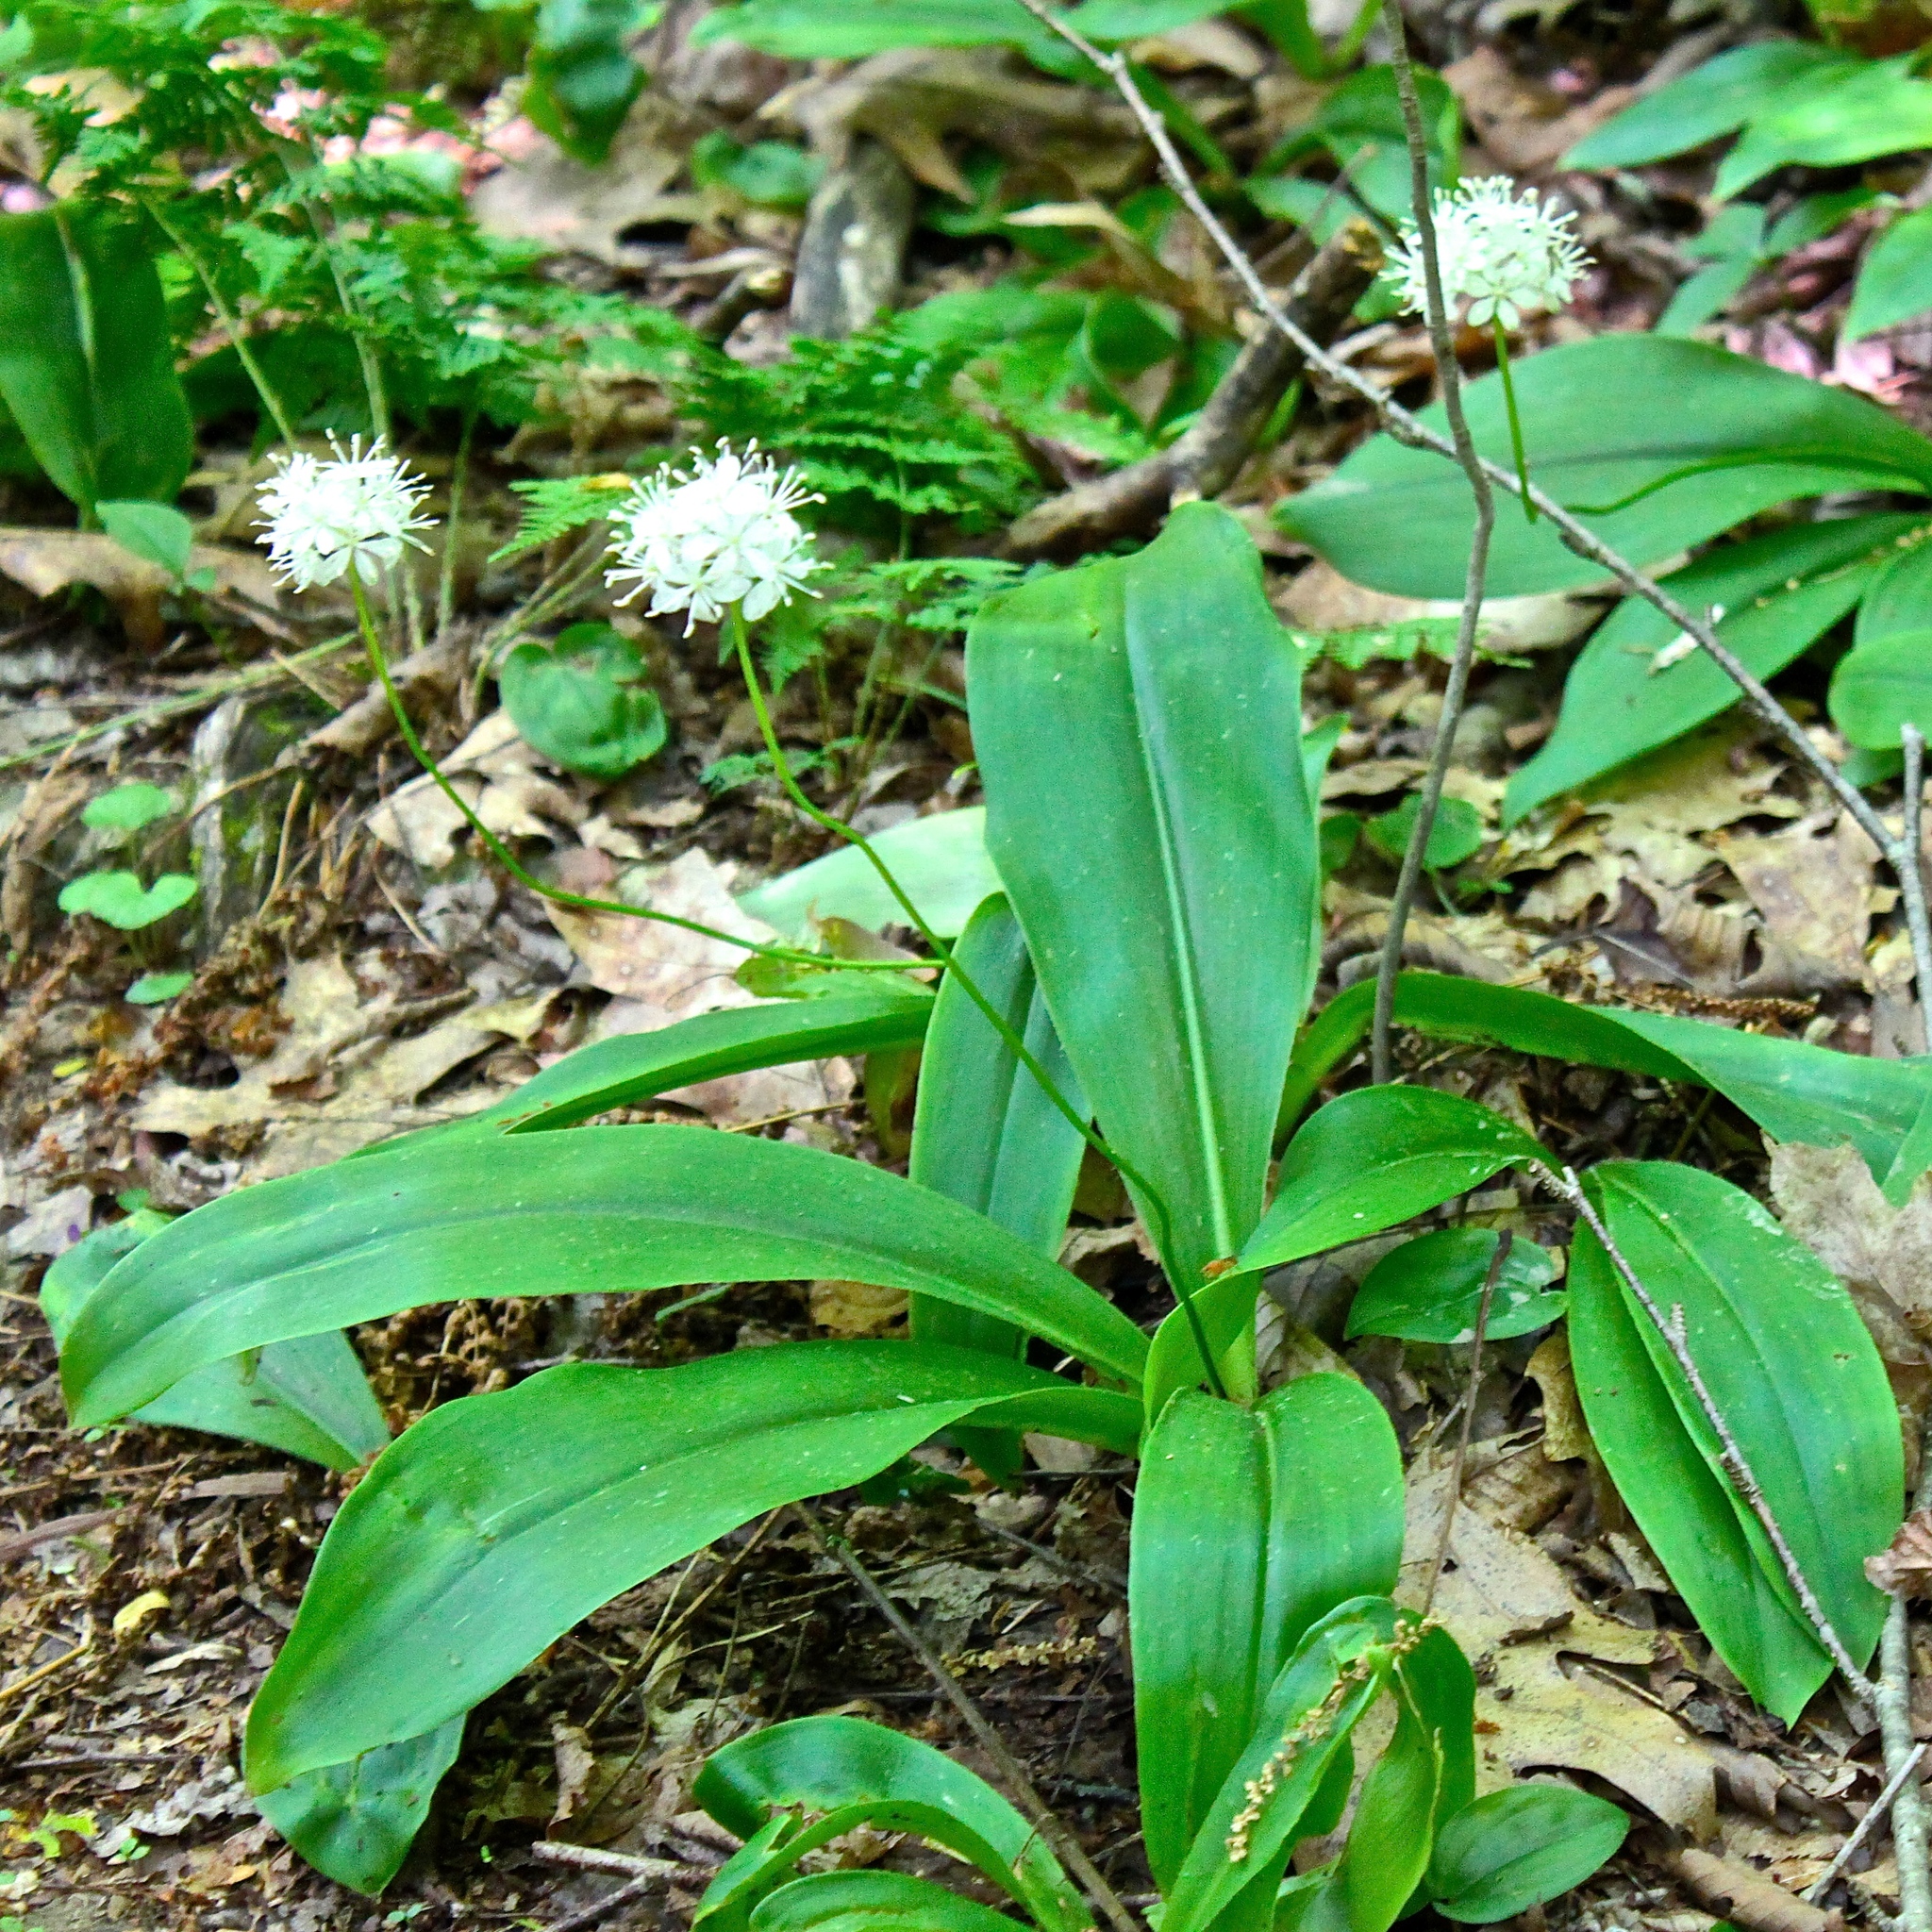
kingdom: Plantae
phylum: Tracheophyta
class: Liliopsida
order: Liliales
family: Liliaceae
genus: Clintonia
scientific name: Clintonia umbellulata
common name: Speckle wood-lily
